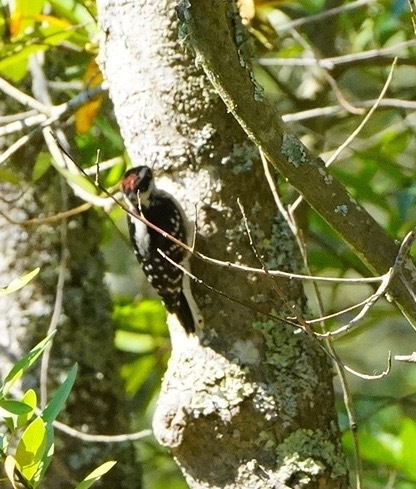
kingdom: Animalia
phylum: Chordata
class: Aves
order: Piciformes
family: Picidae
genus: Dryobates
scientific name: Dryobates nuttallii
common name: Nuttall's woodpecker
